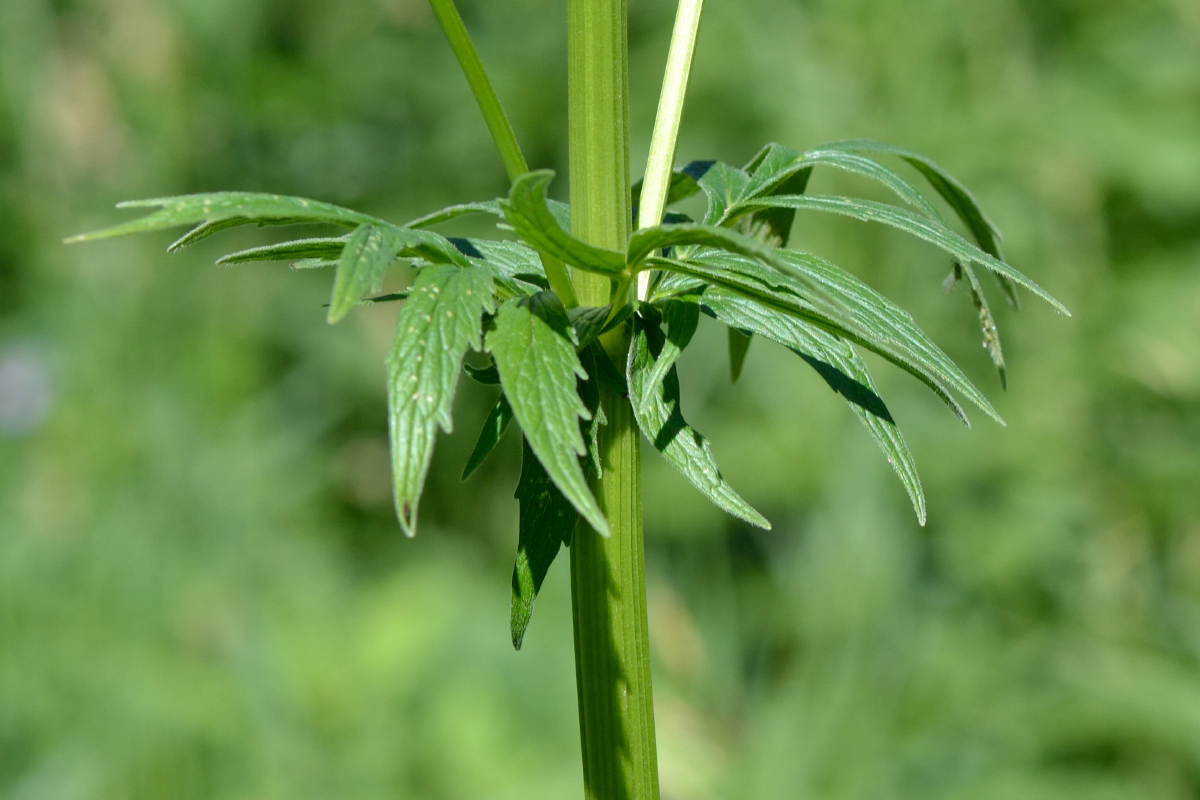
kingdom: Plantae
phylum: Tracheophyta
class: Magnoliopsida
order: Dipsacales
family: Caprifoliaceae
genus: Valeriana
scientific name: Valeriana officinalis
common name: Common valerian
